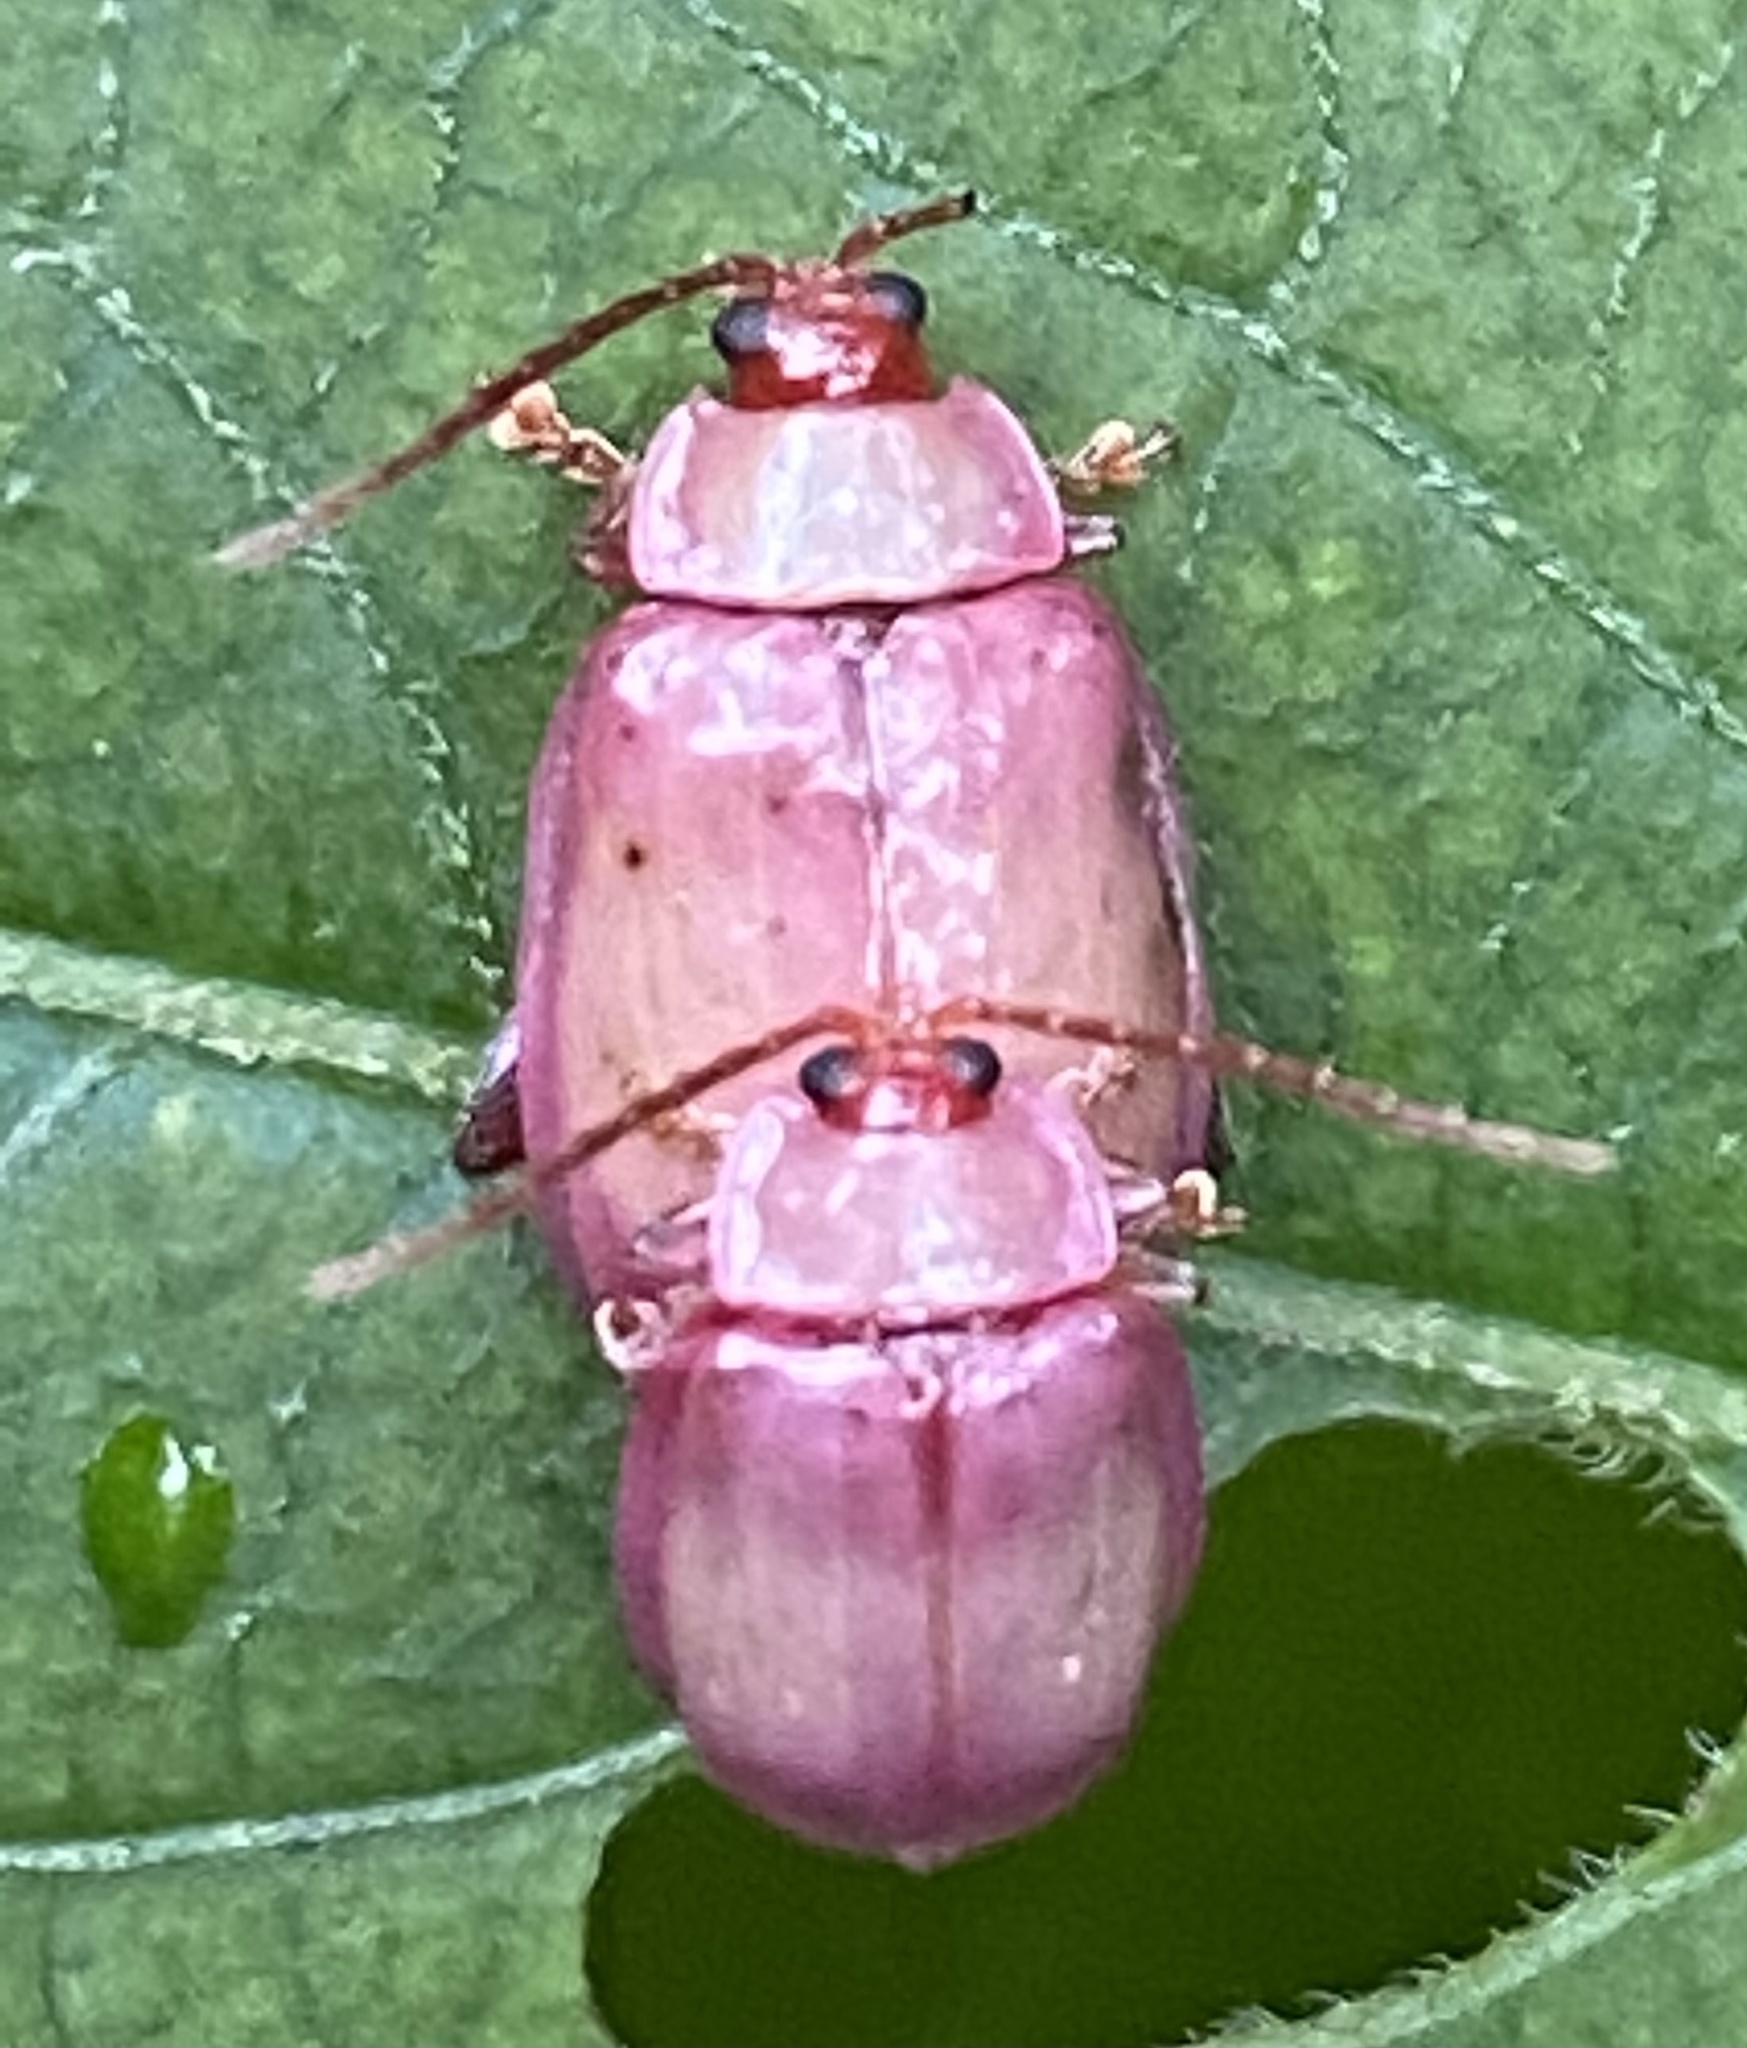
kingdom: Animalia
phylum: Arthropoda
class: Insecta
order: Coleoptera
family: Chrysomelidae
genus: Asphaera
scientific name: Asphaera
